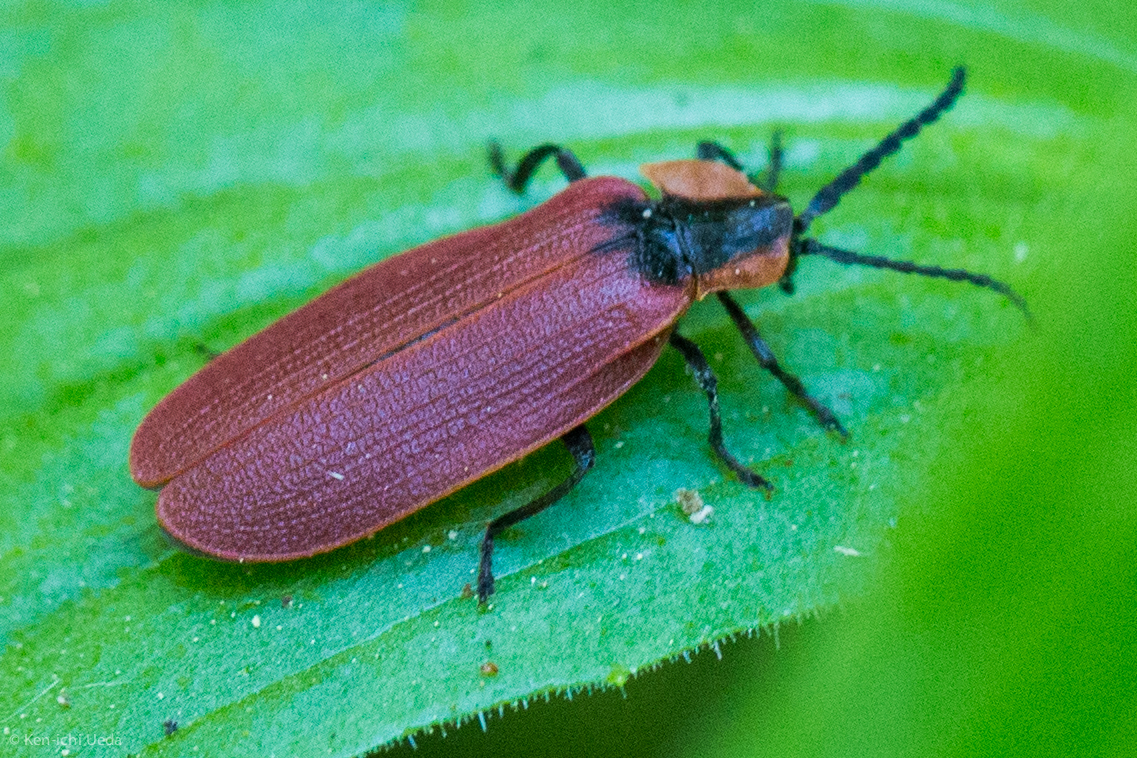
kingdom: Animalia
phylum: Arthropoda
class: Insecta
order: Coleoptera
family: Lycidae
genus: Lycus
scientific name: Lycus sanguinipennis
